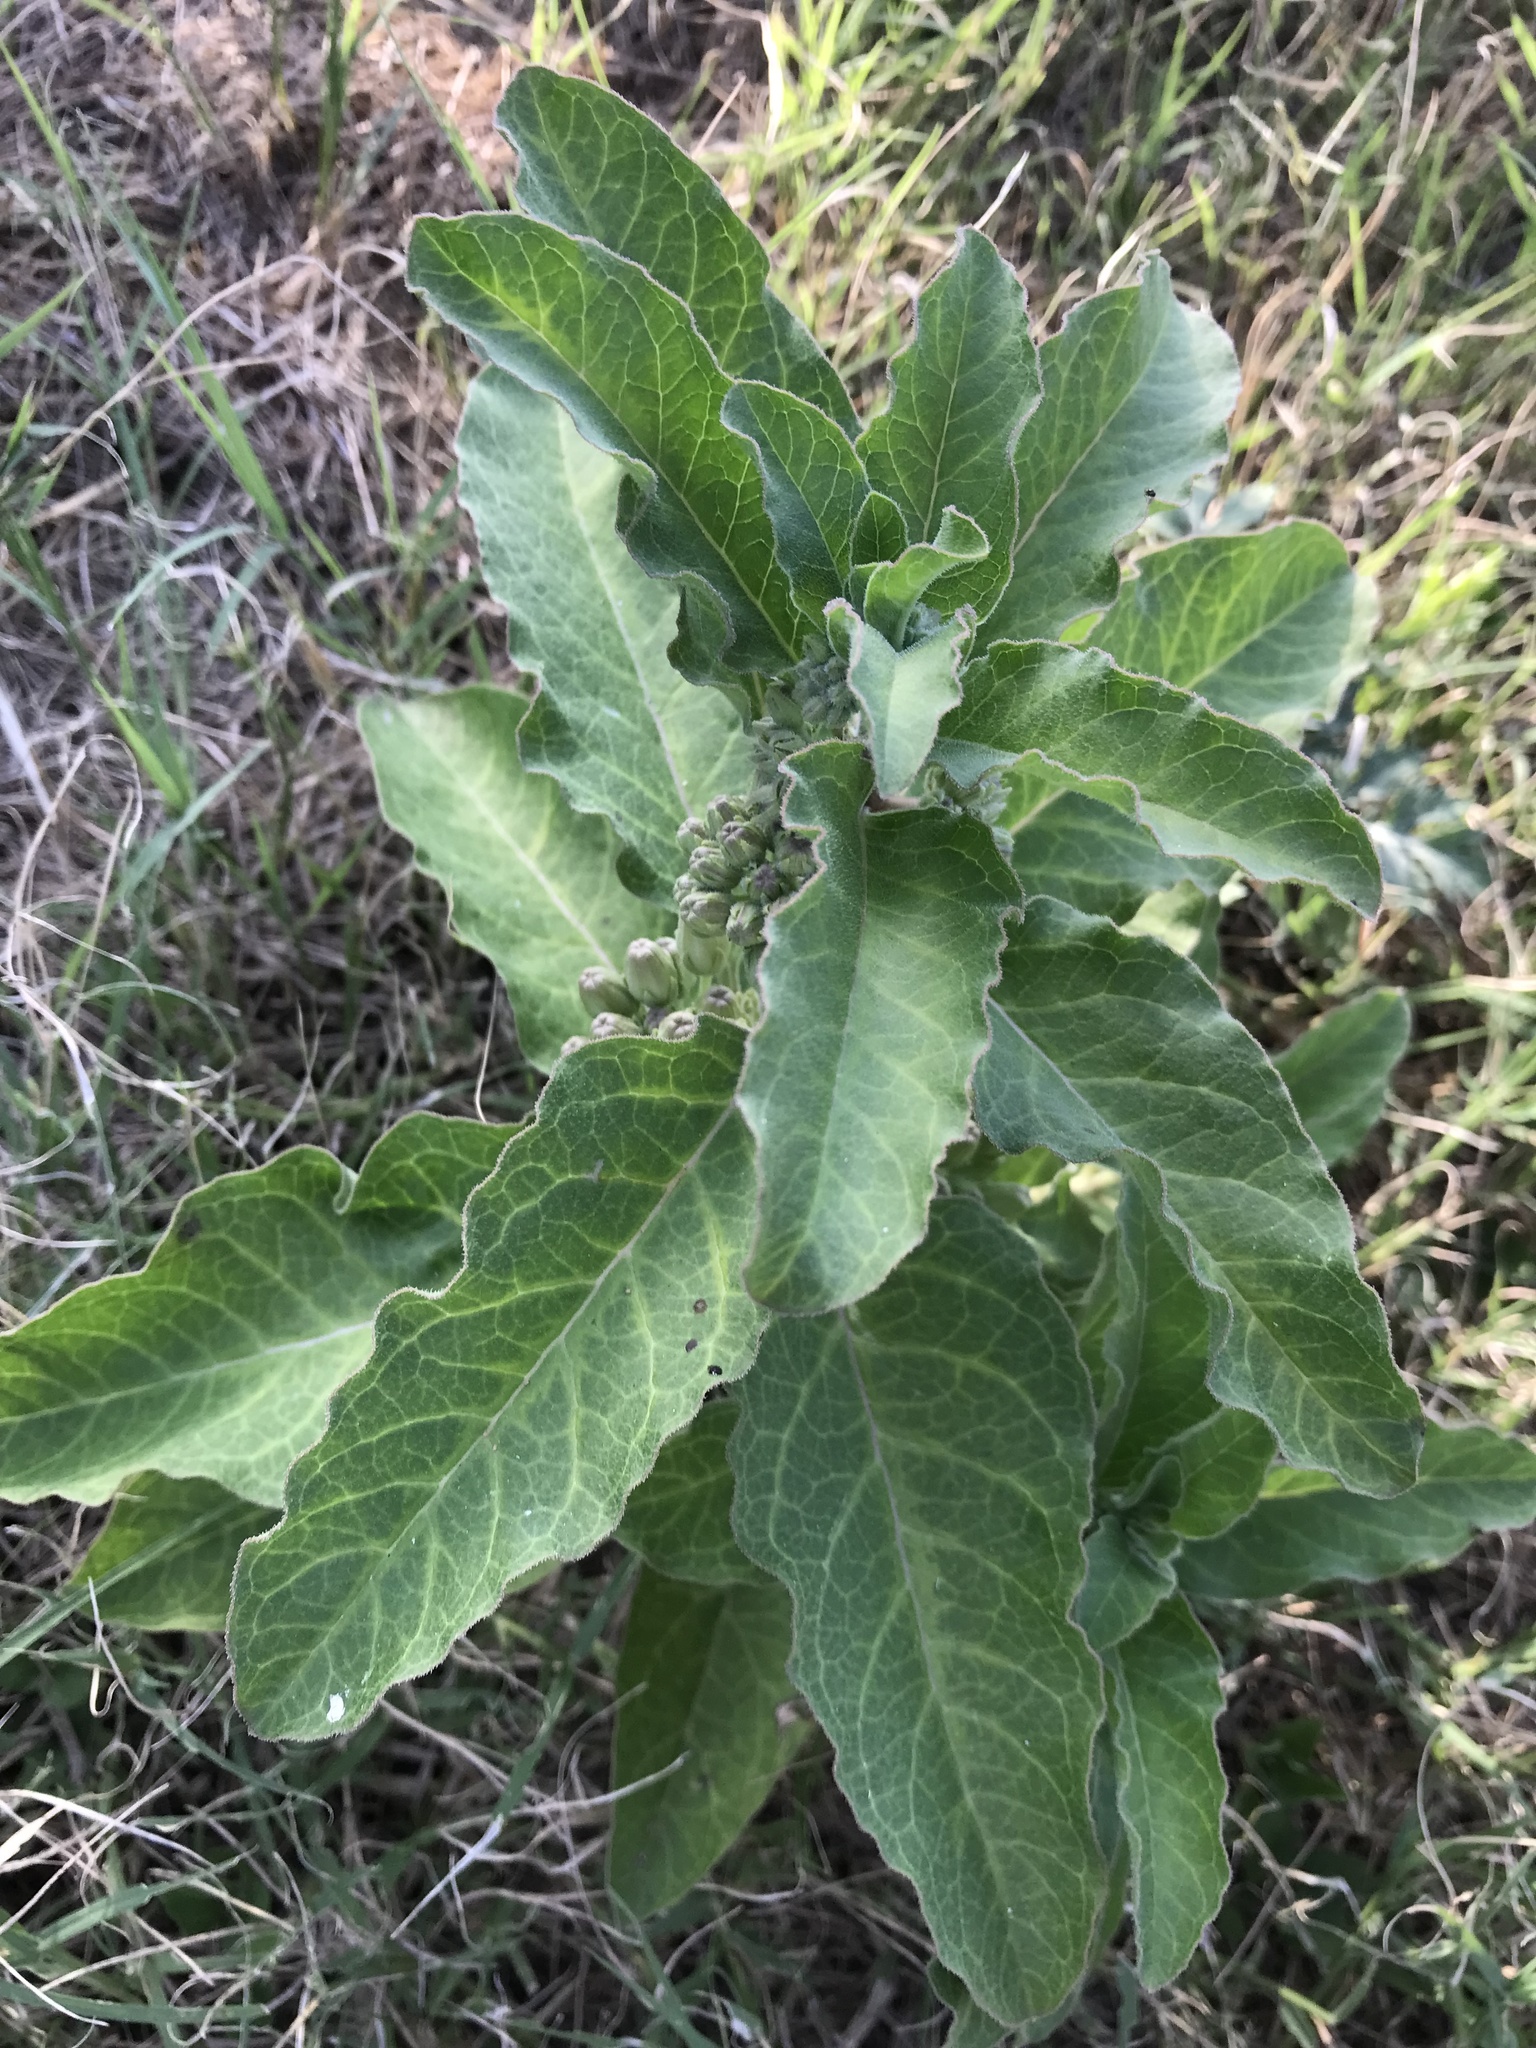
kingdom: Plantae
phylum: Tracheophyta
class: Magnoliopsida
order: Gentianales
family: Apocynaceae
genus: Asclepias
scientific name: Asclepias oenotheroides
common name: Zizotes milkweed
